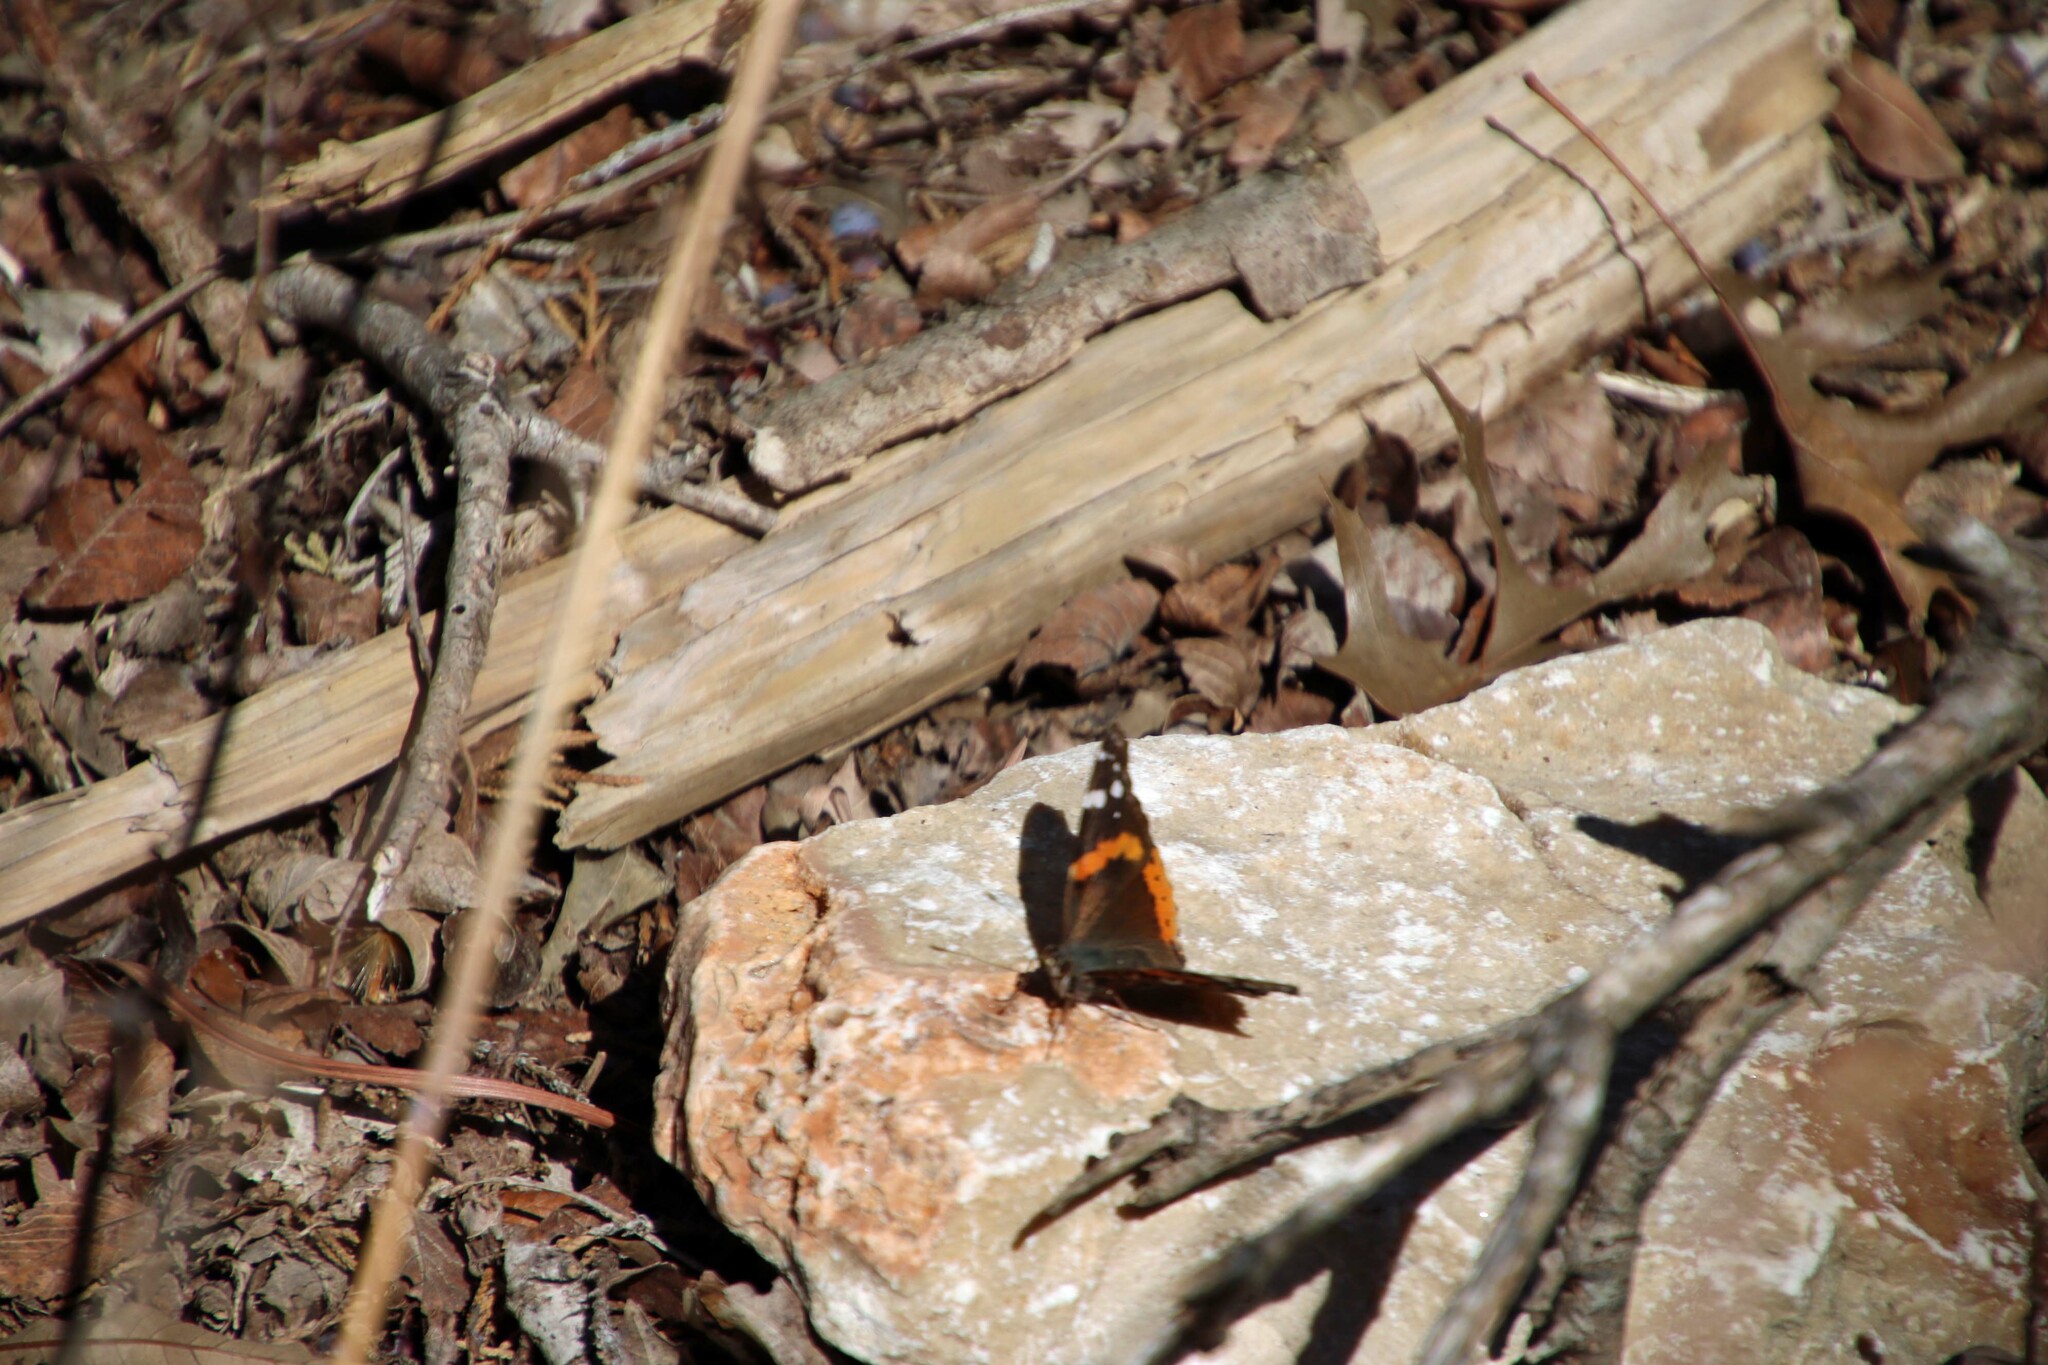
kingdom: Animalia
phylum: Arthropoda
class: Insecta
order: Lepidoptera
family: Nymphalidae
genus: Vanessa
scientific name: Vanessa atalanta
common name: Red admiral
